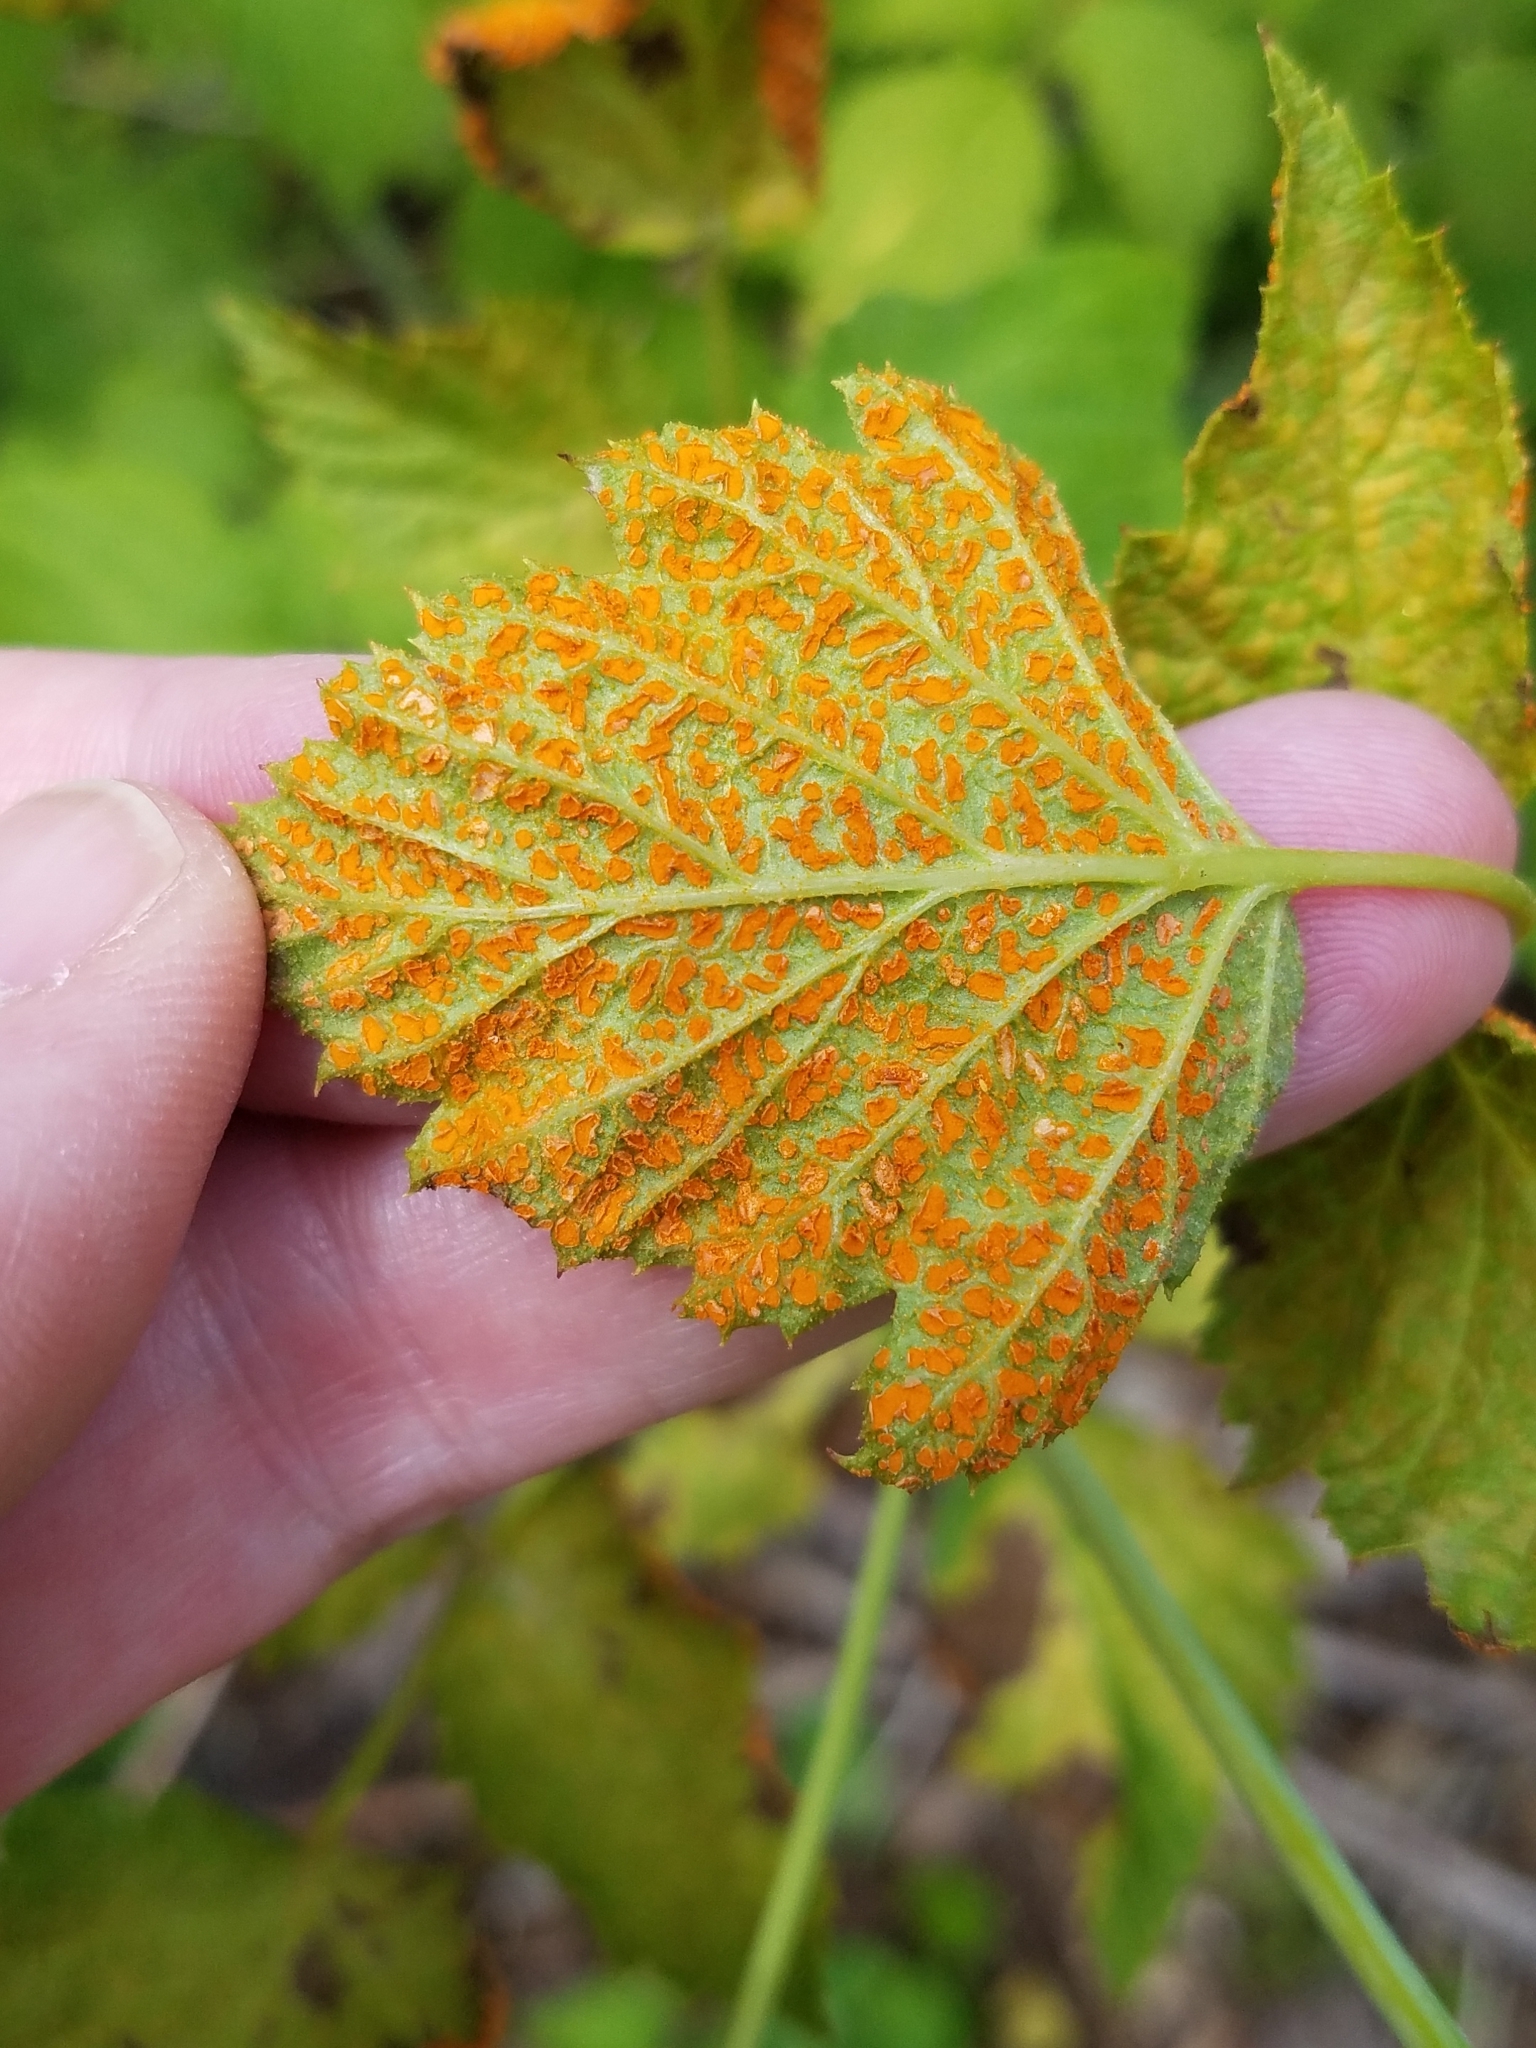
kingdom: Fungi
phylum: Basidiomycota
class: Pucciniomycetes
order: Pucciniales
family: Phragmidiaceae
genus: Arthuriomyces
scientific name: Arthuriomyces peckianus
